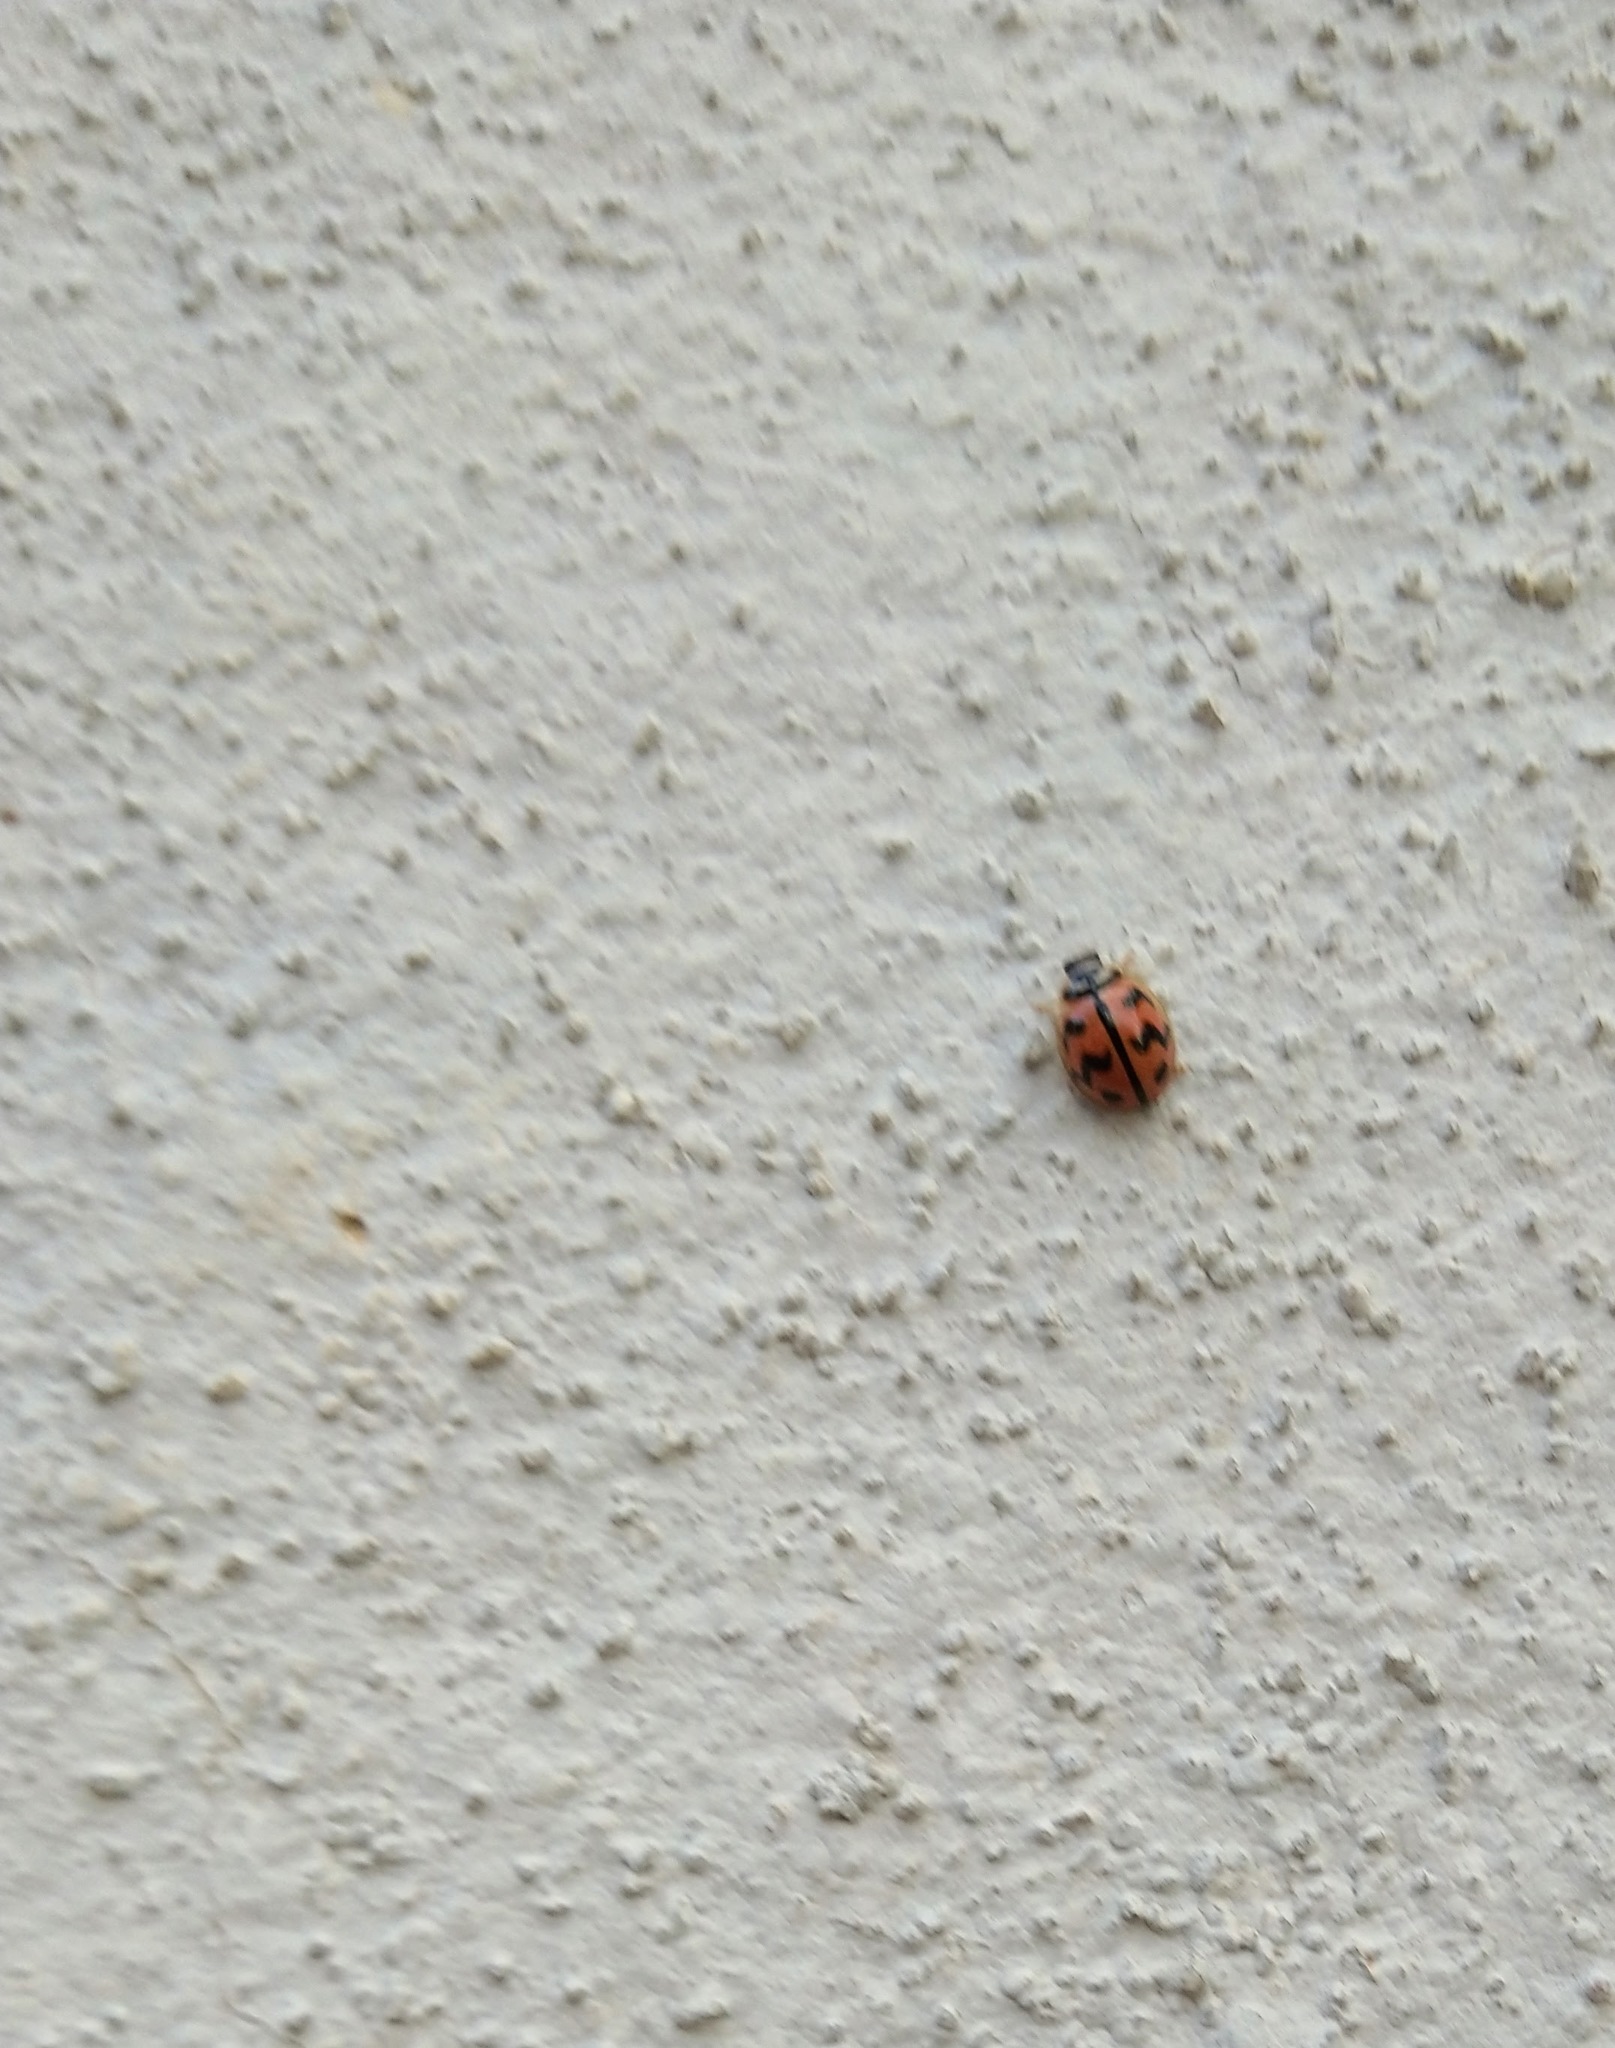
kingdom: Animalia
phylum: Arthropoda
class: Insecta
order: Coleoptera
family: Coccinellidae
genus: Cheilomenes
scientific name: Cheilomenes sexmaculata
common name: Ladybird beetle
